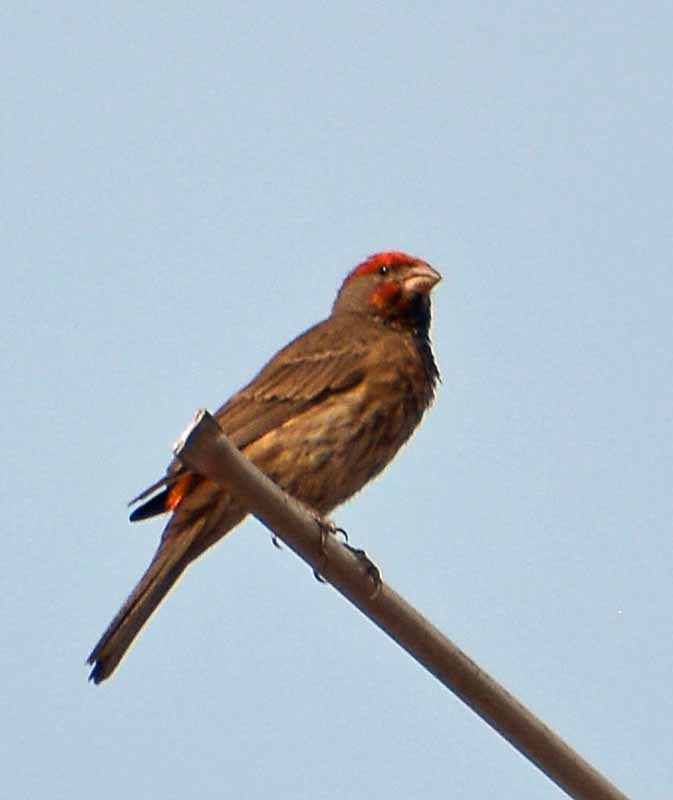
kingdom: Animalia
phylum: Chordata
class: Aves
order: Passeriformes
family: Fringillidae
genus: Haemorhous
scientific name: Haemorhous mexicanus
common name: House finch
